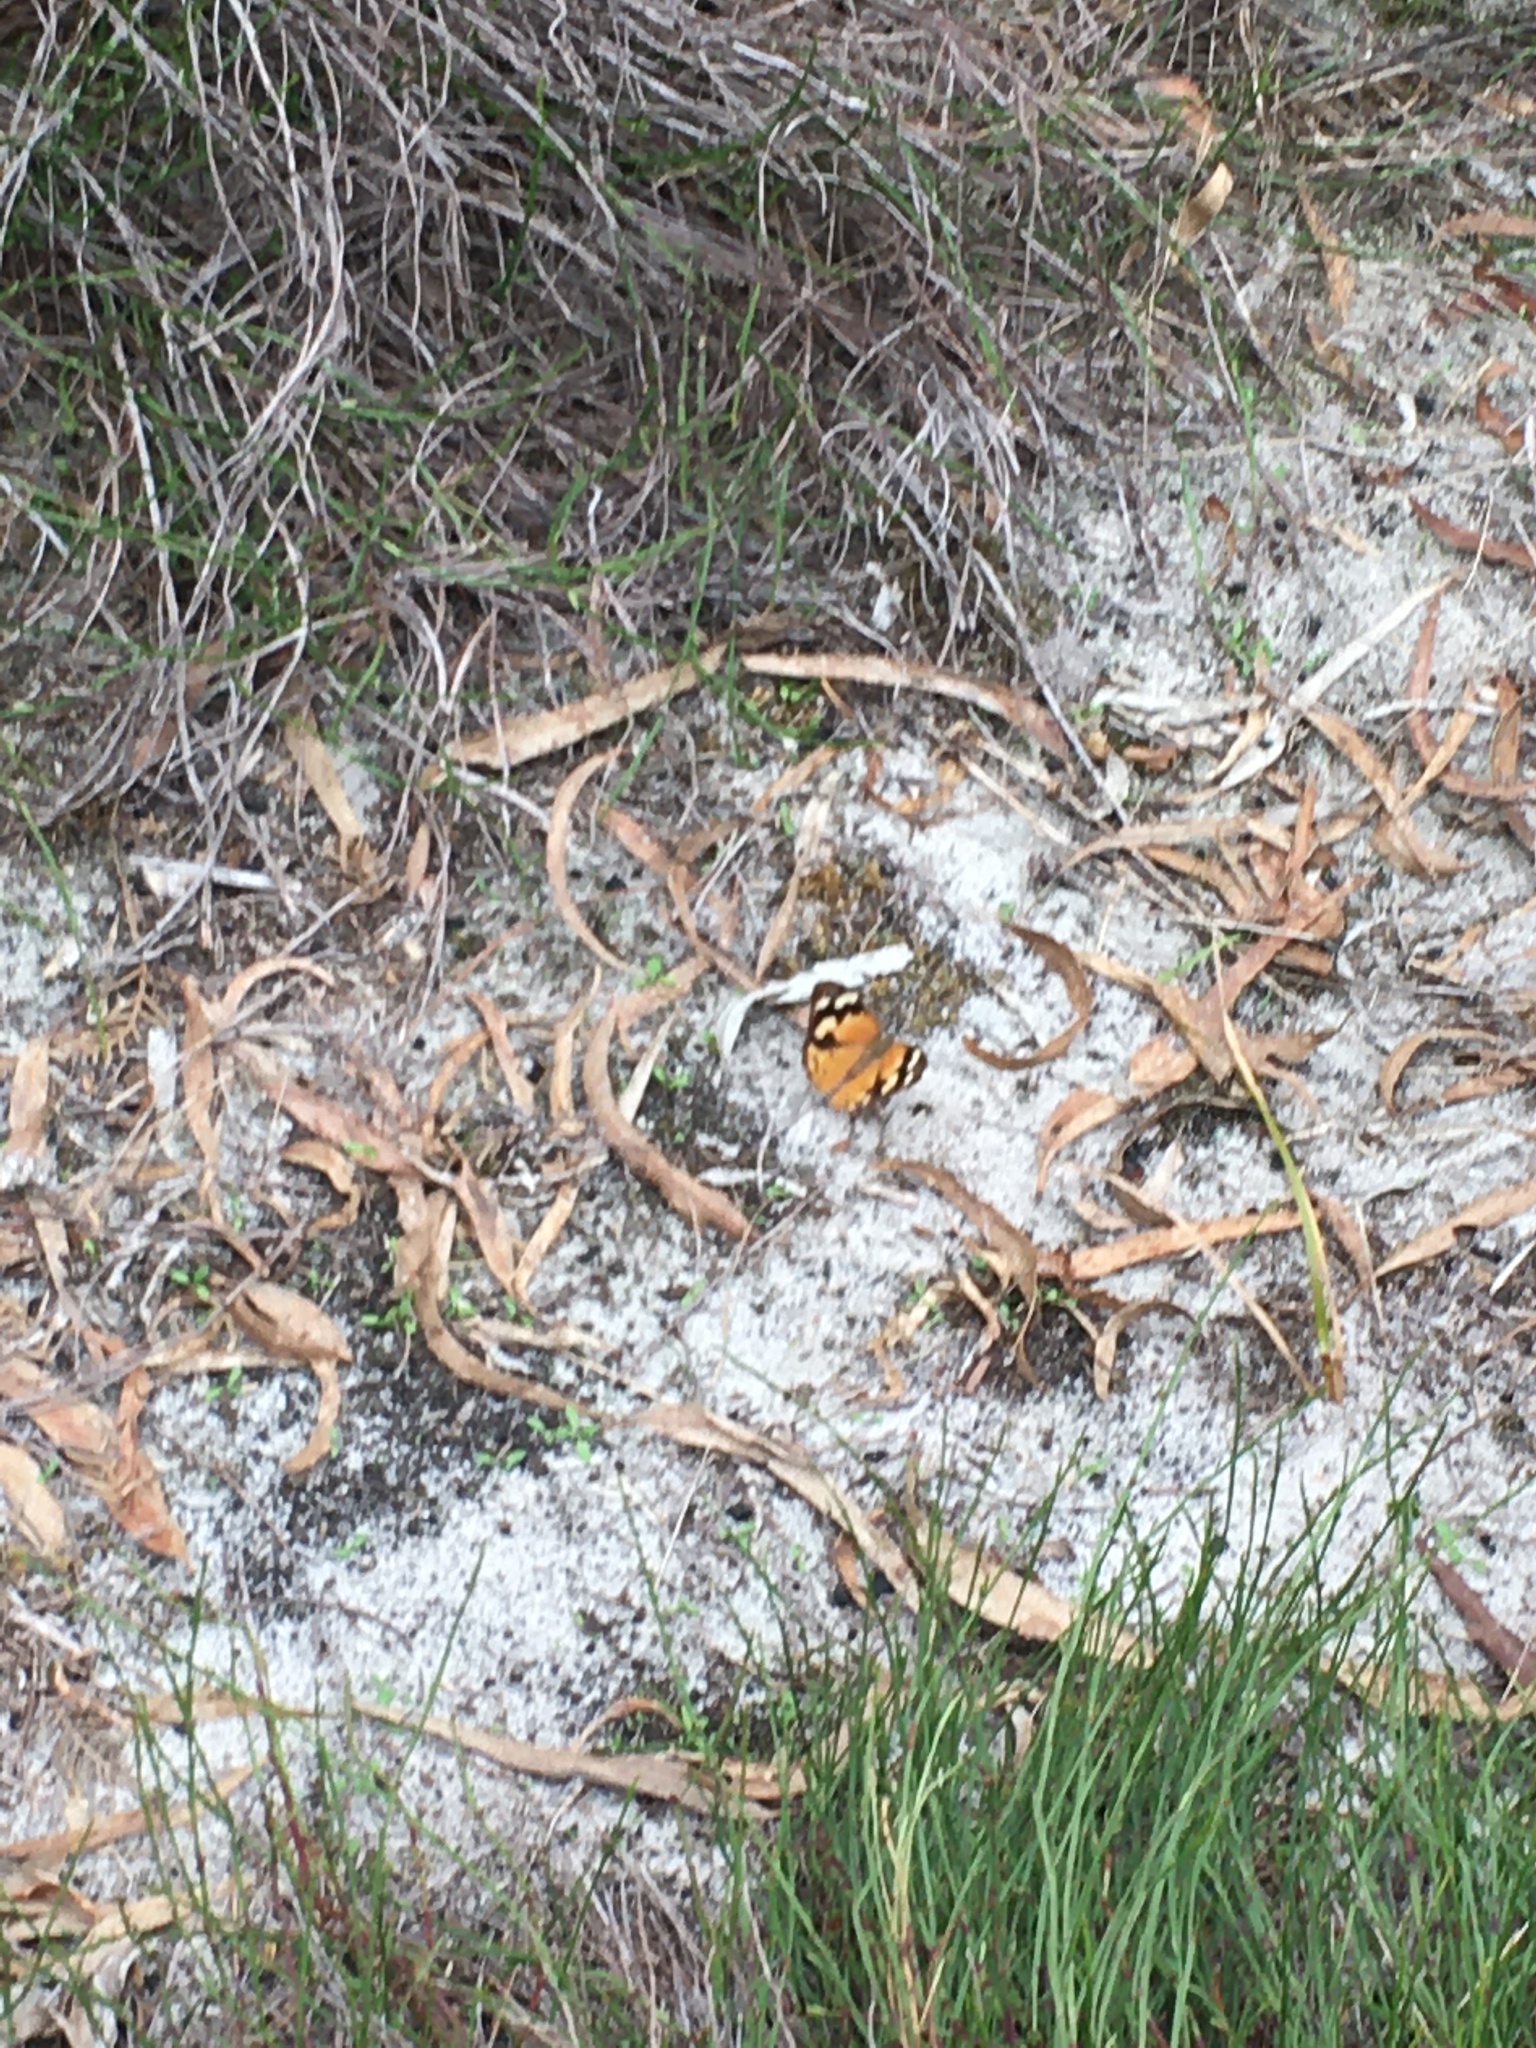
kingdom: Animalia
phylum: Arthropoda
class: Insecta
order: Lepidoptera
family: Nymphalidae
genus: Heteronympha
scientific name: Heteronympha merope
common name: Common brown
